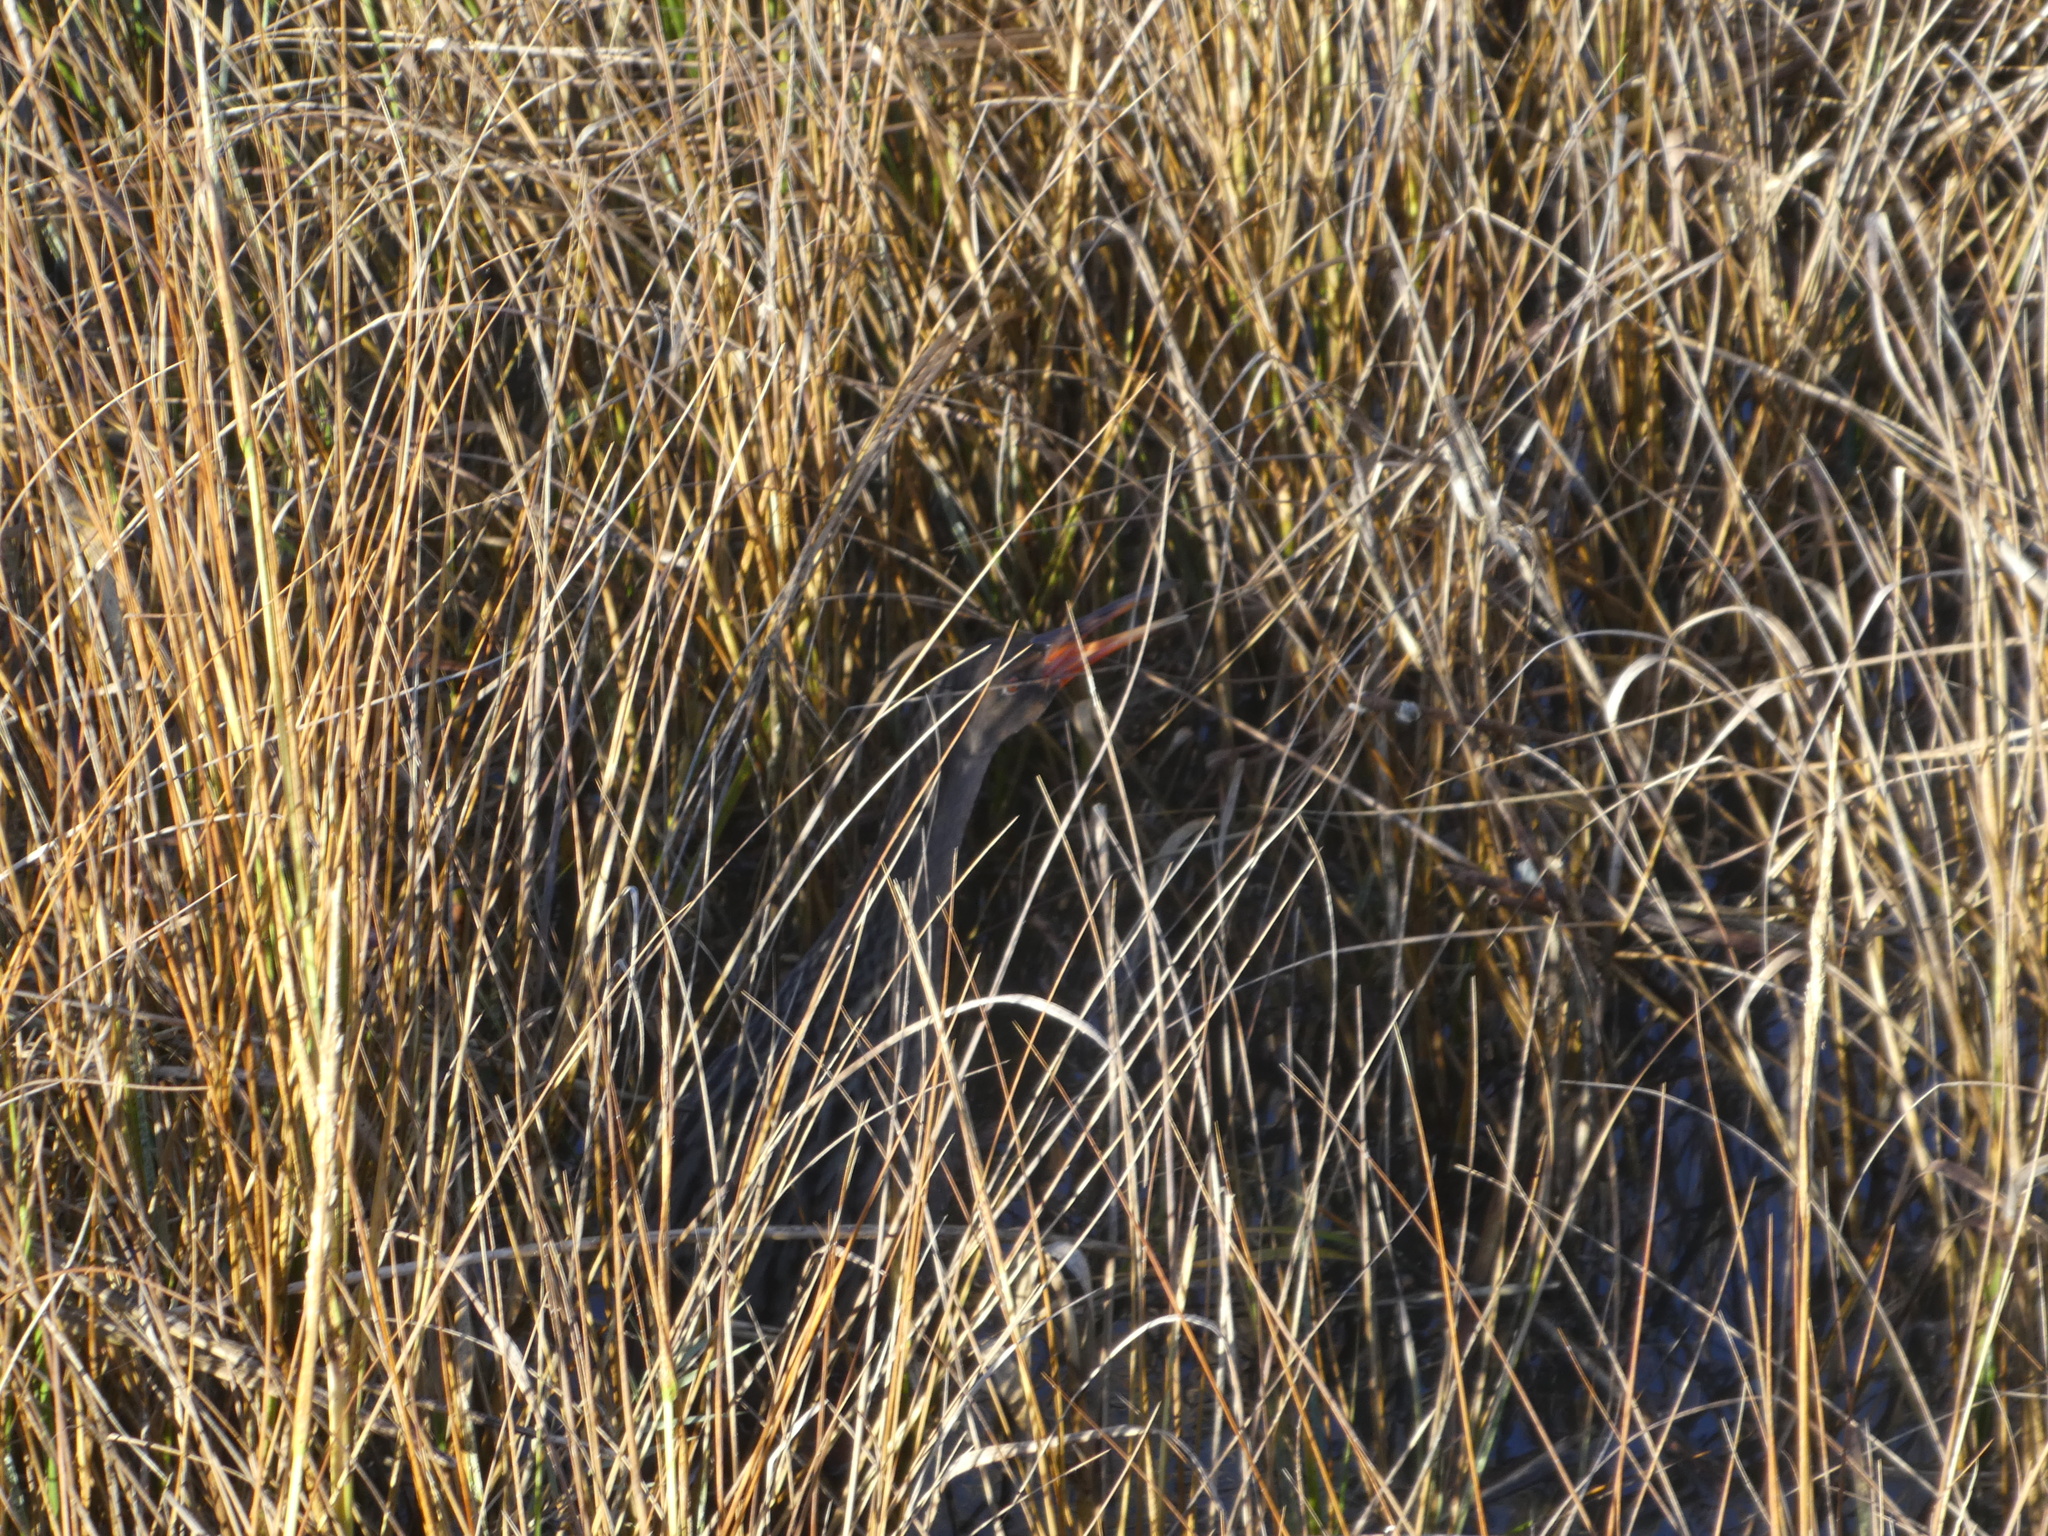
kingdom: Animalia
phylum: Chordata
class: Aves
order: Gruiformes
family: Rallidae
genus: Rallus
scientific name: Rallus obsoletus
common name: Ridgway's rail
